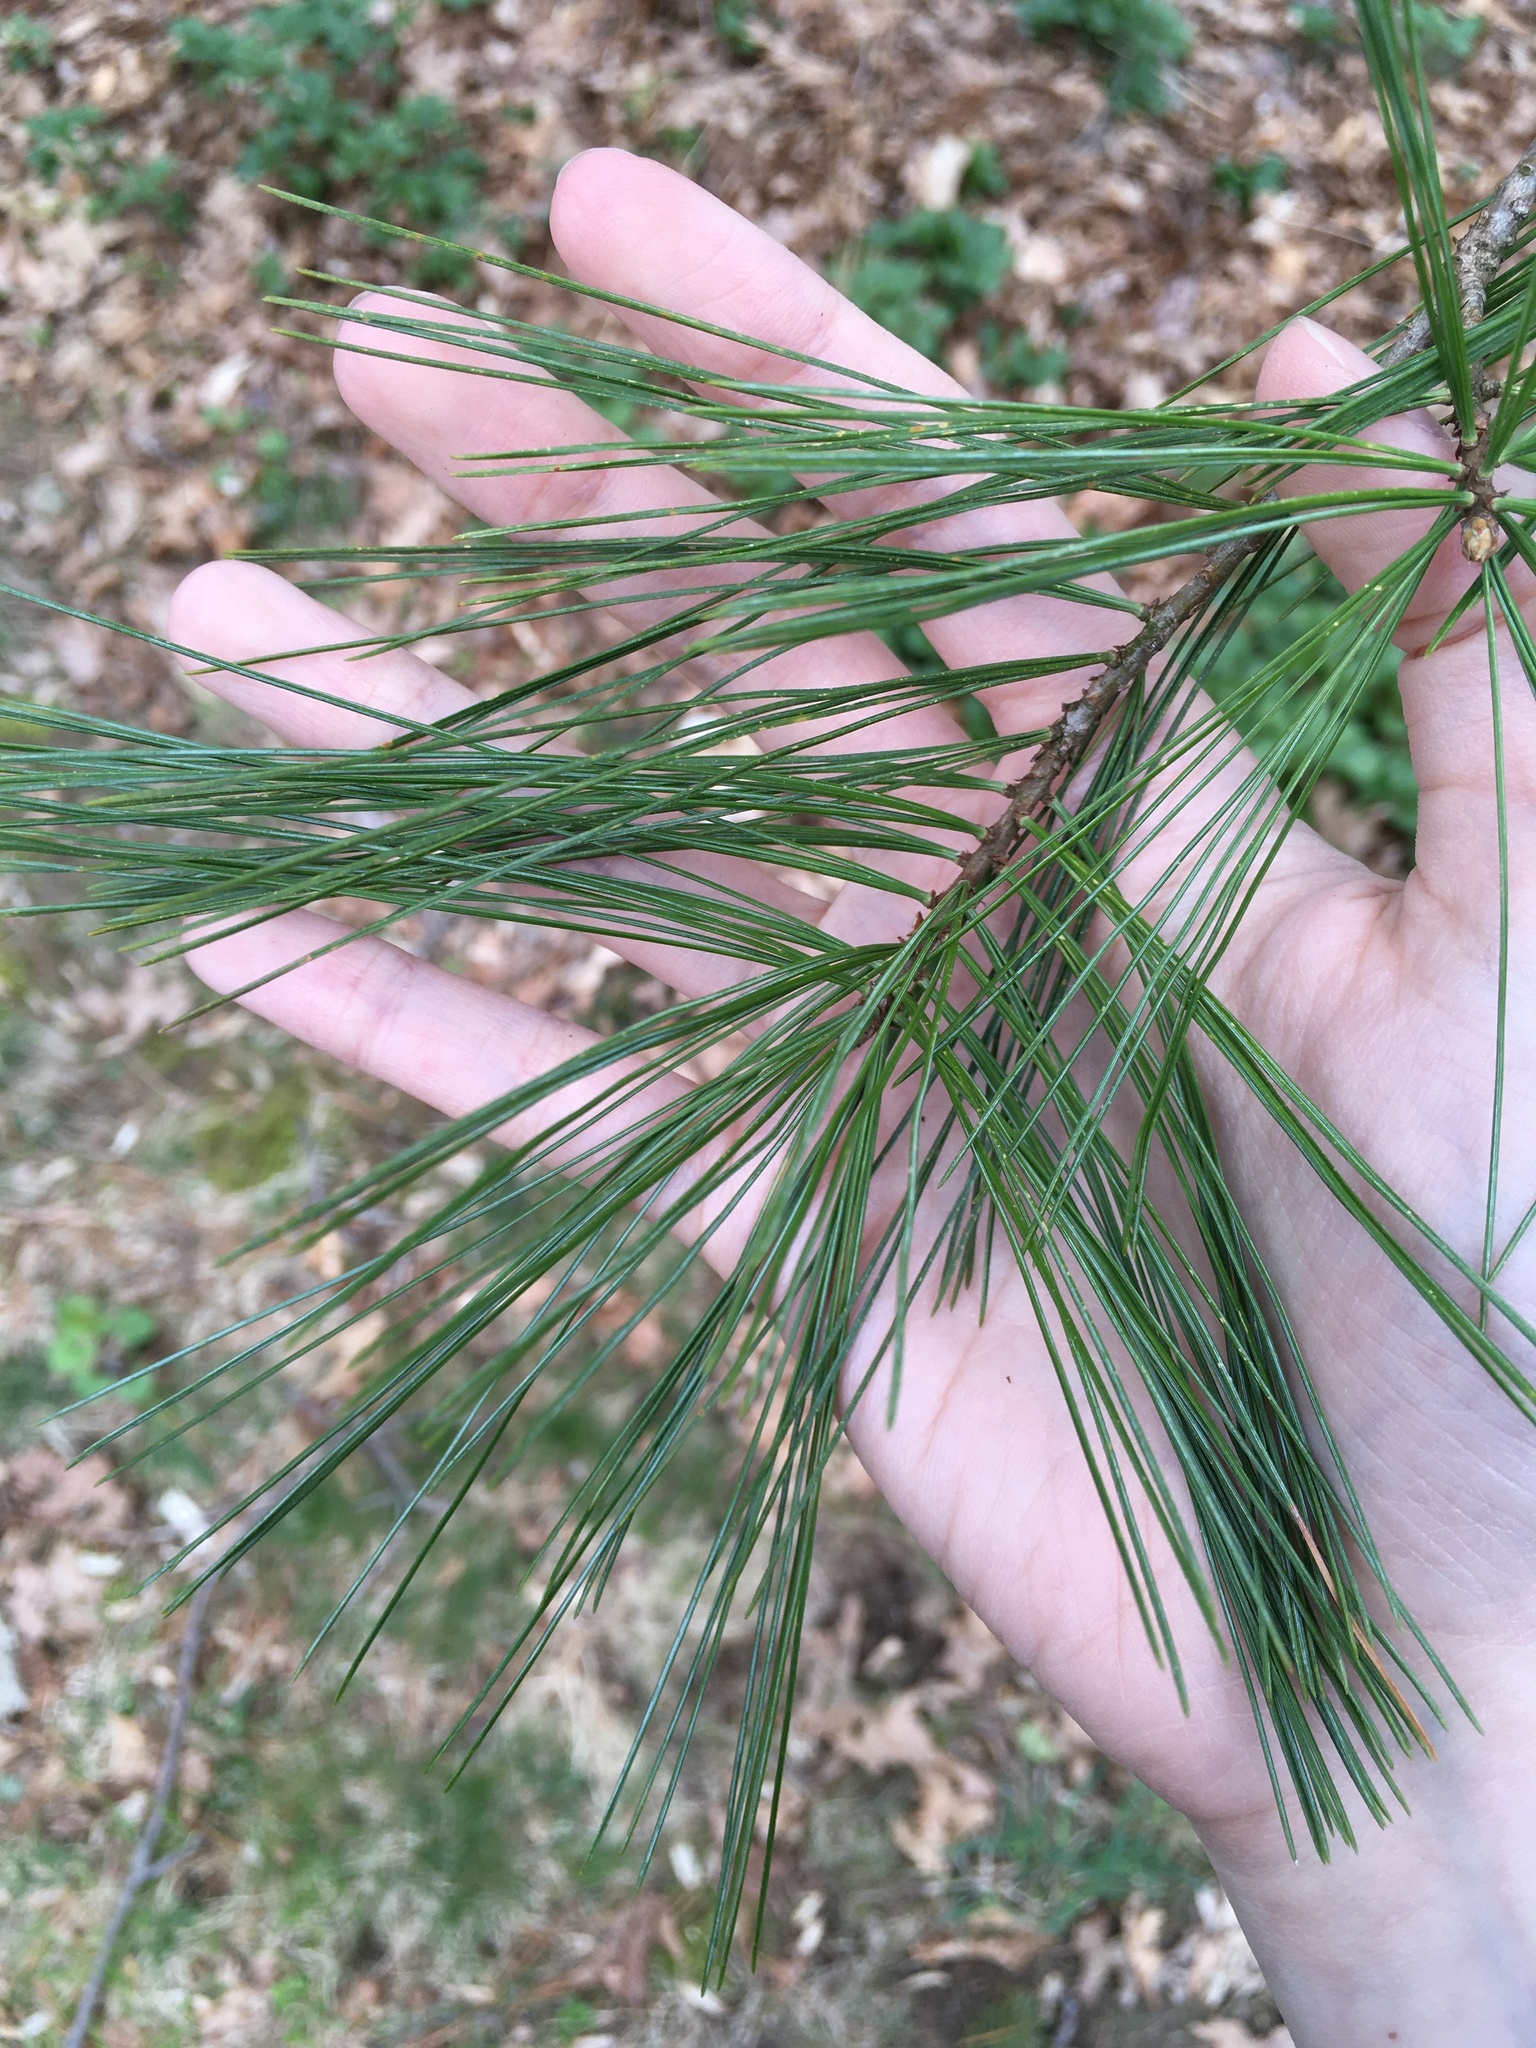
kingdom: Plantae
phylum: Tracheophyta
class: Pinopsida
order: Pinales
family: Pinaceae
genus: Pinus
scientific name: Pinus strobus
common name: Weymouth pine
